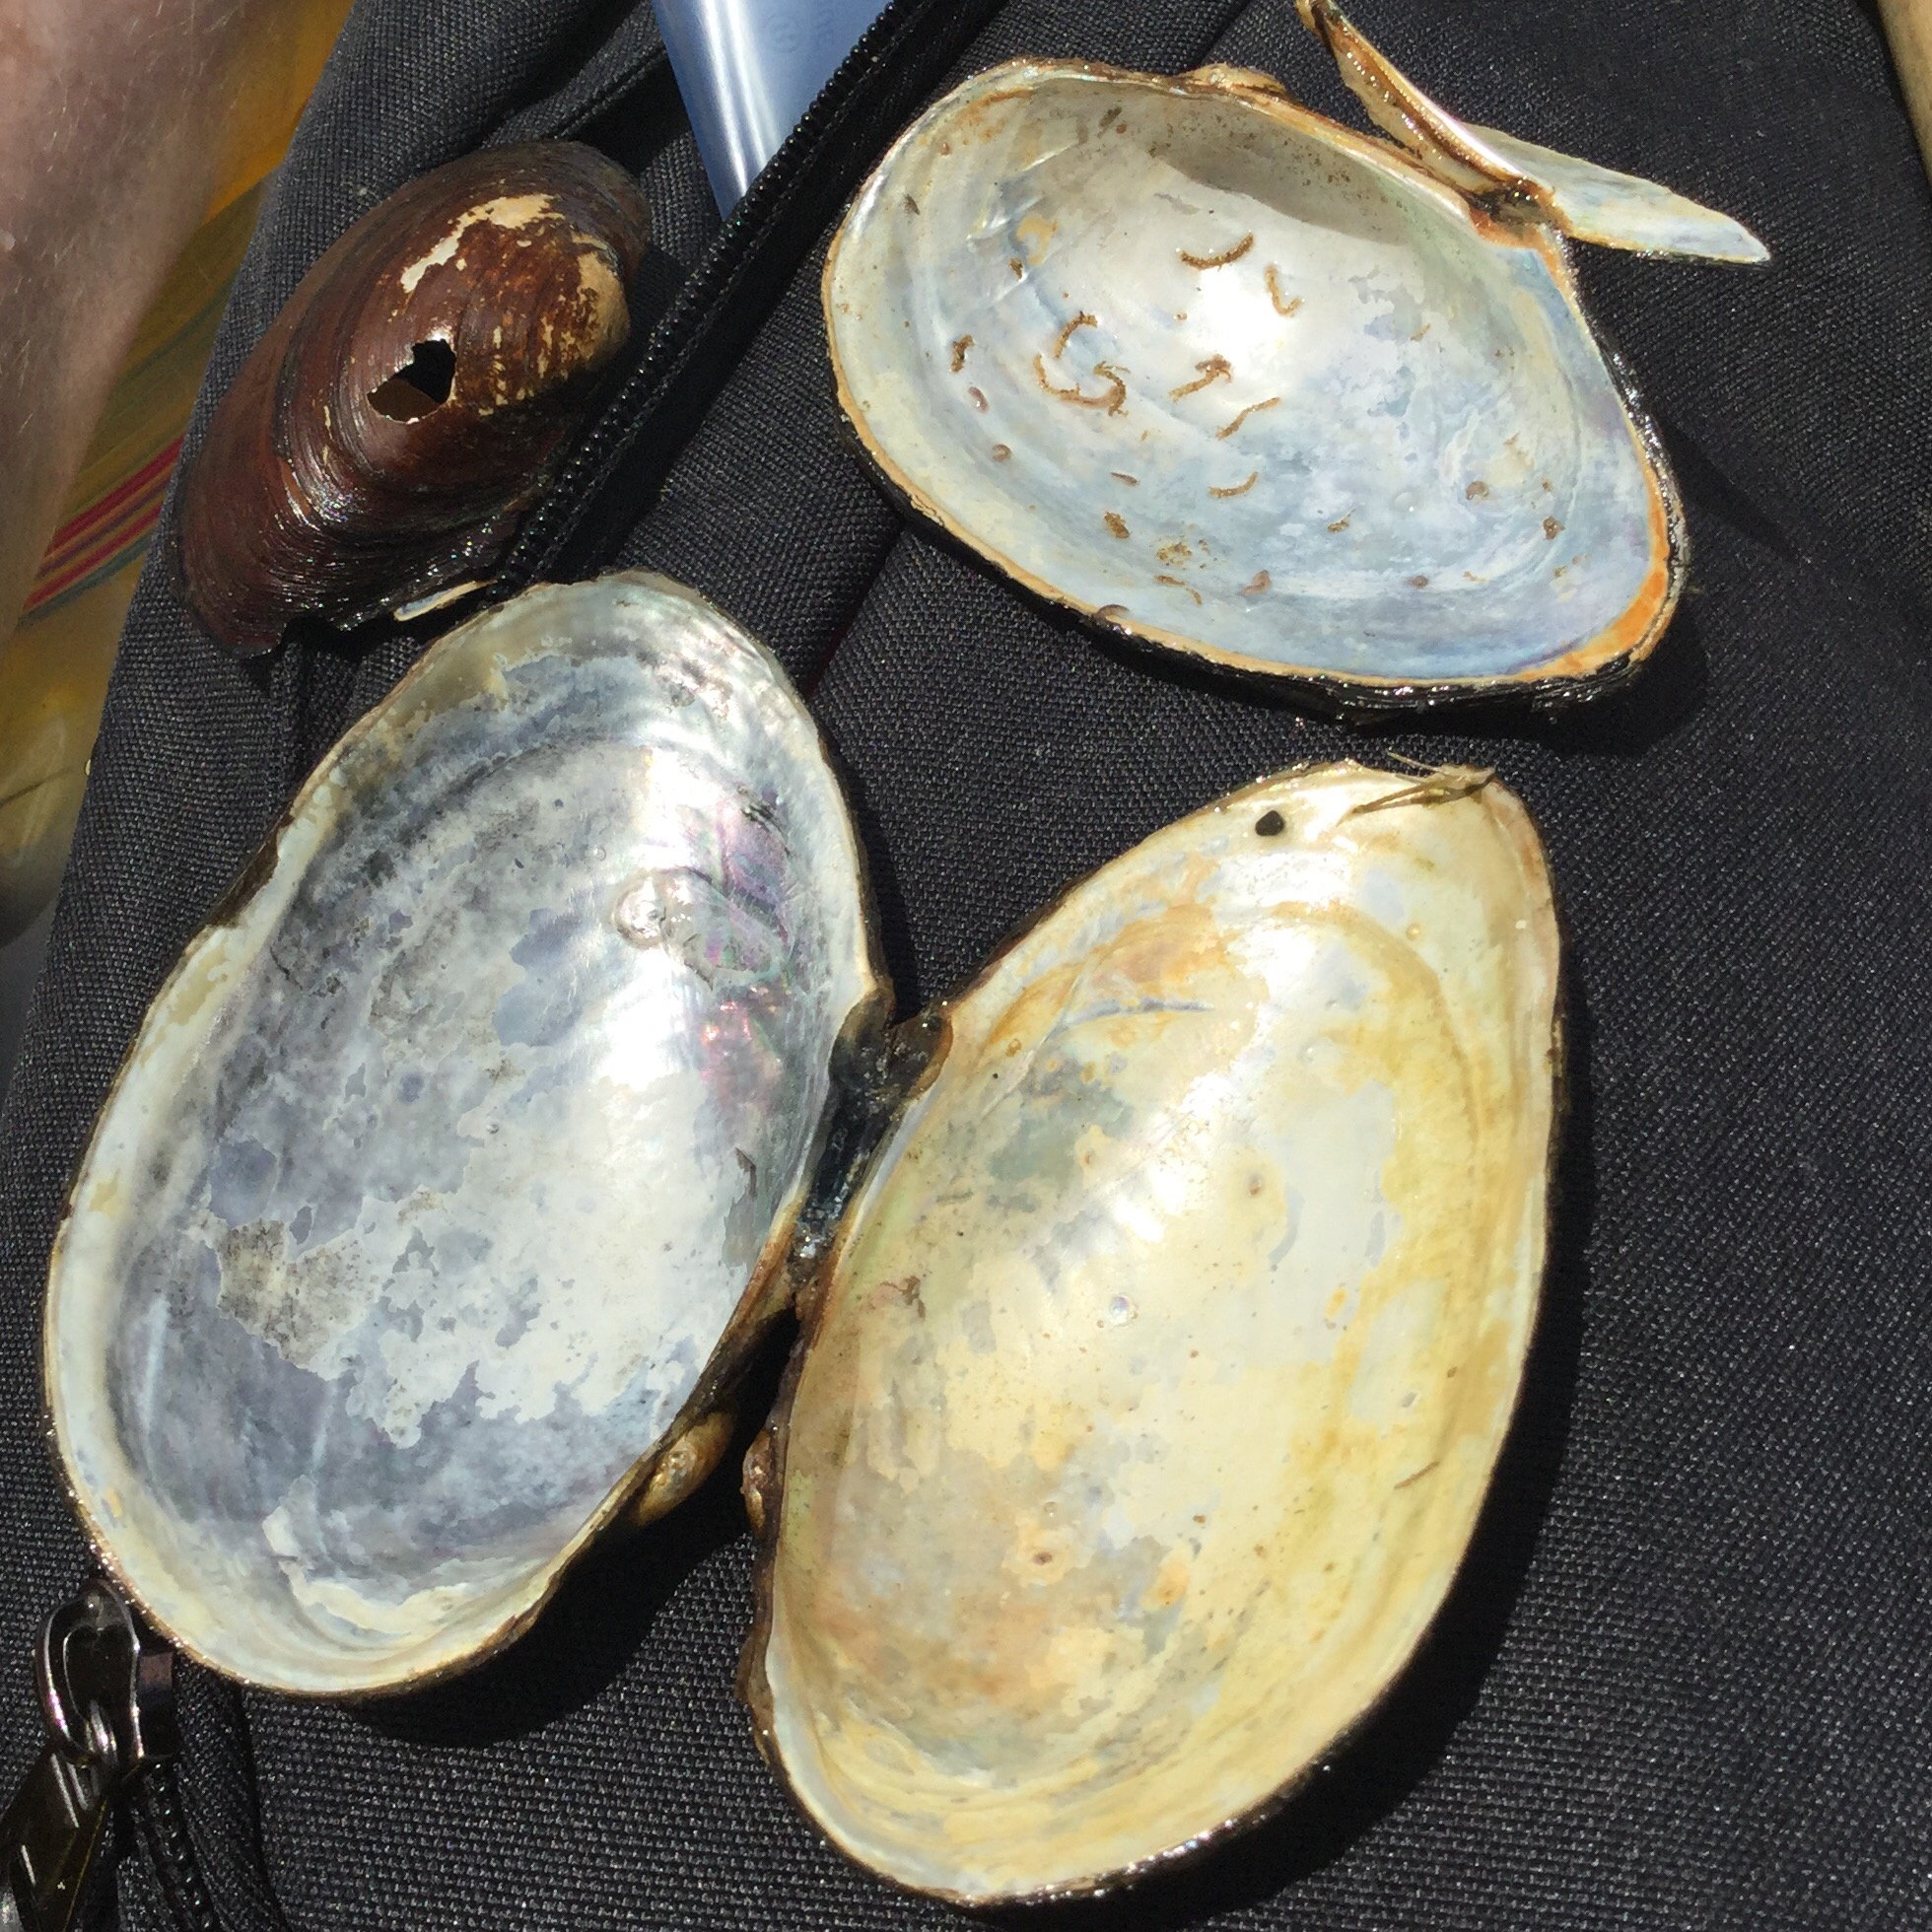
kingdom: Animalia
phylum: Mollusca
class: Bivalvia
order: Unionida
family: Unionidae
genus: Pyganodon
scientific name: Pyganodon grandis
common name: Giant floater
